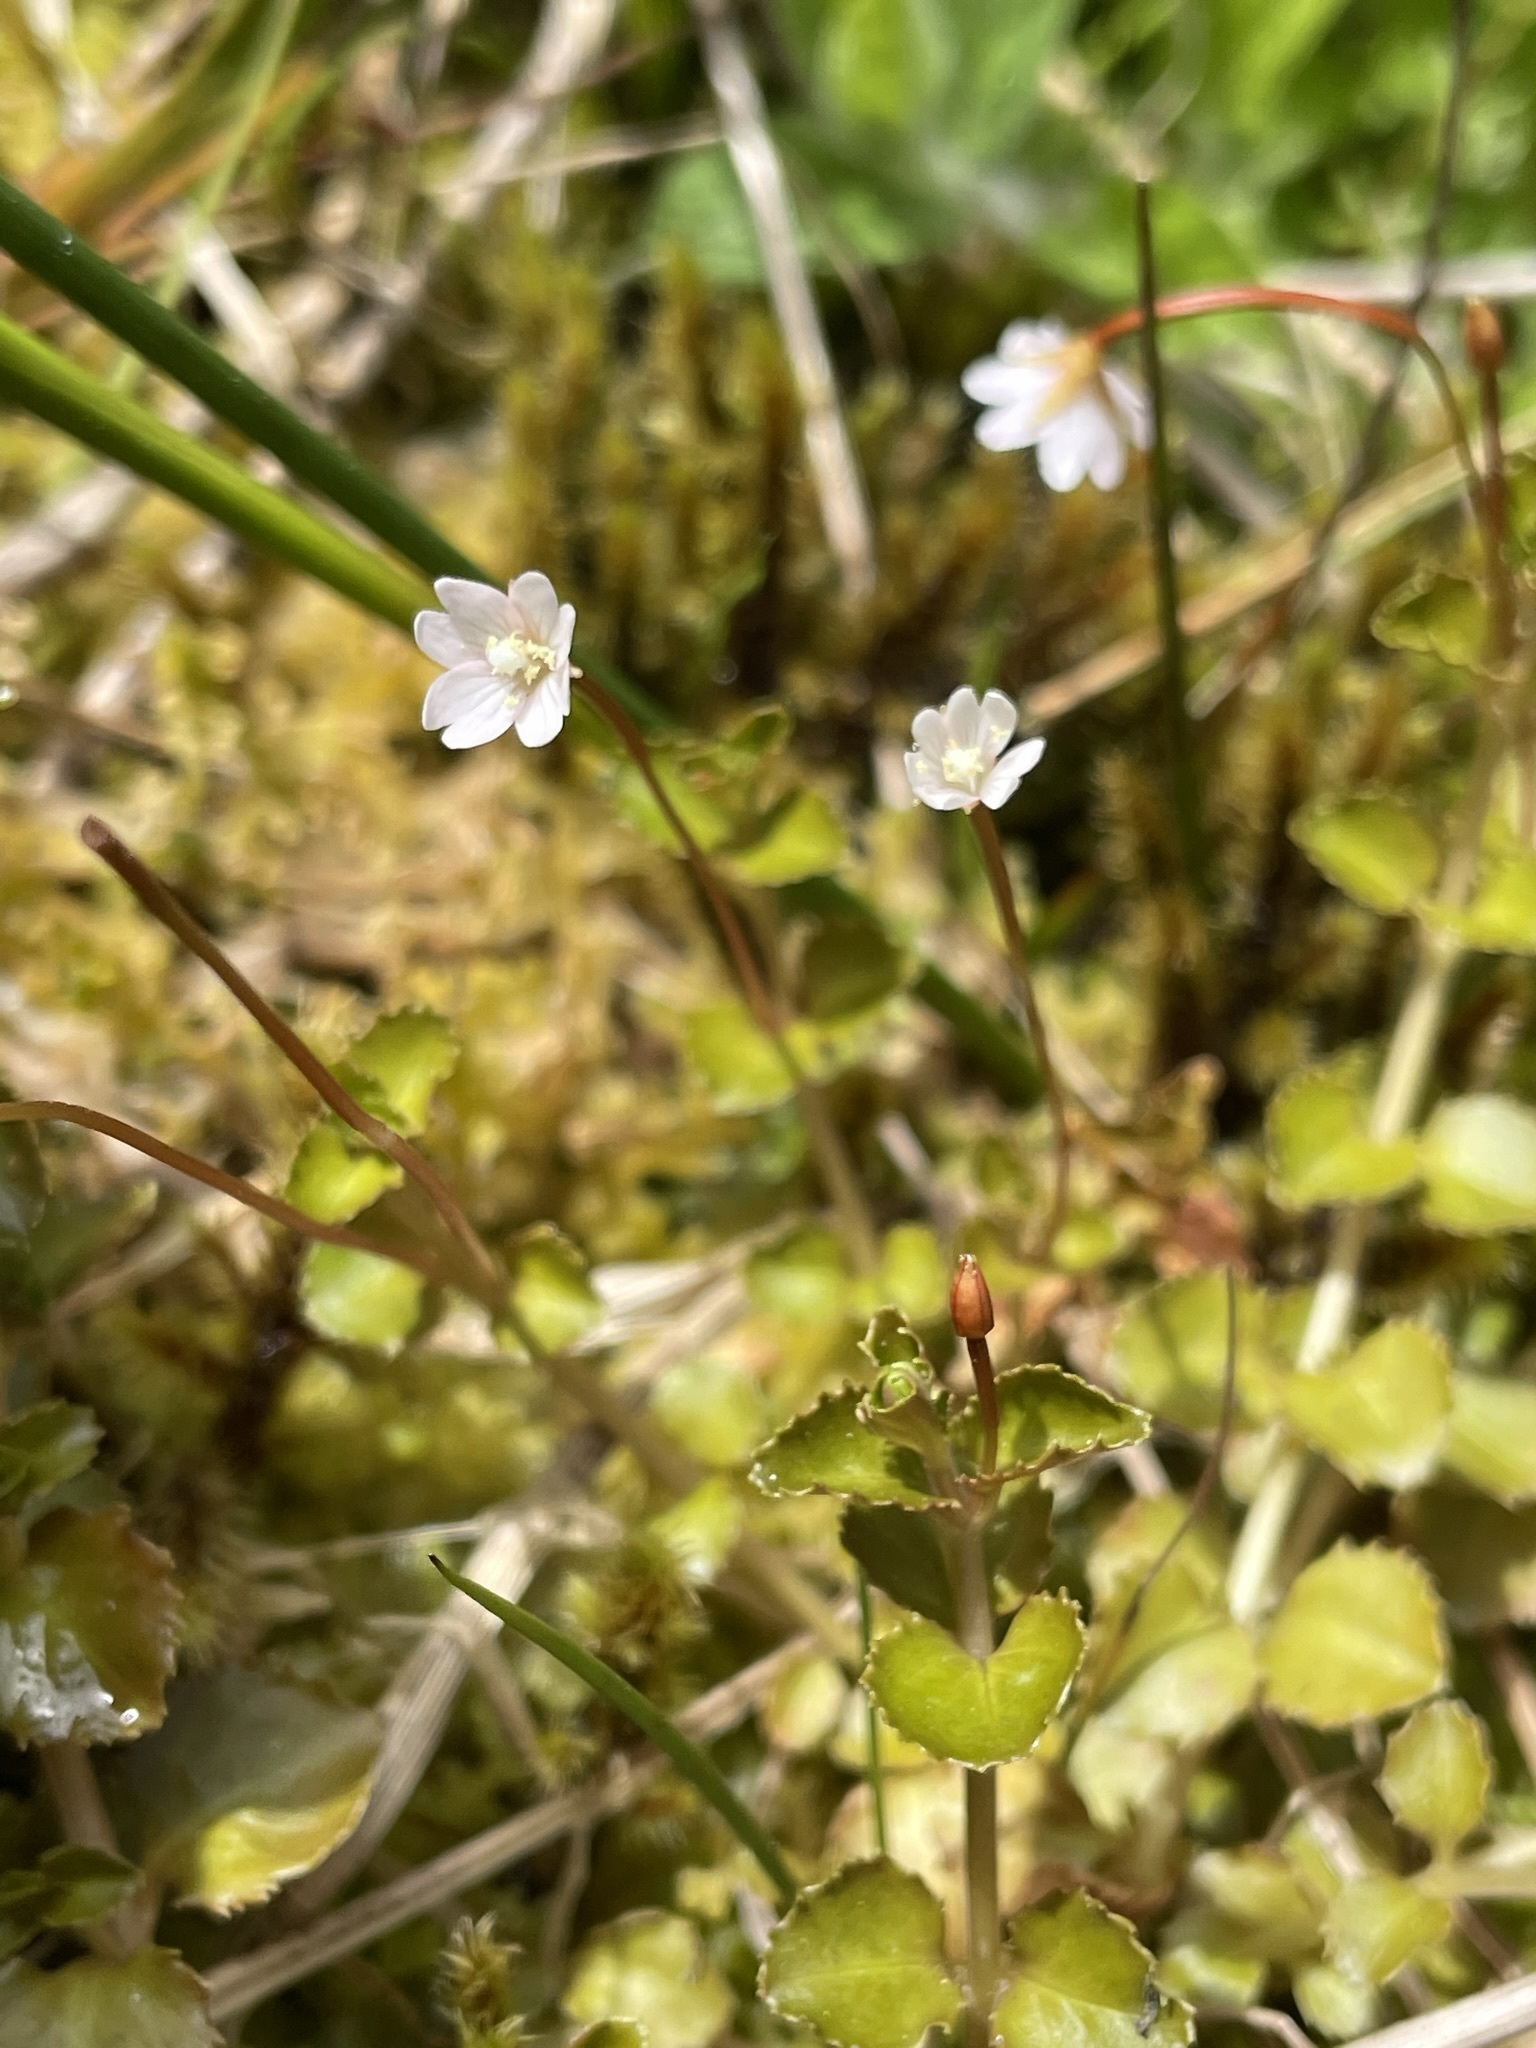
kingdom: Plantae
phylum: Tracheophyta
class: Magnoliopsida
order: Myrtales
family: Onagraceae
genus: Epilobium
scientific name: Epilobium pedunculare
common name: Rockery willowherb
